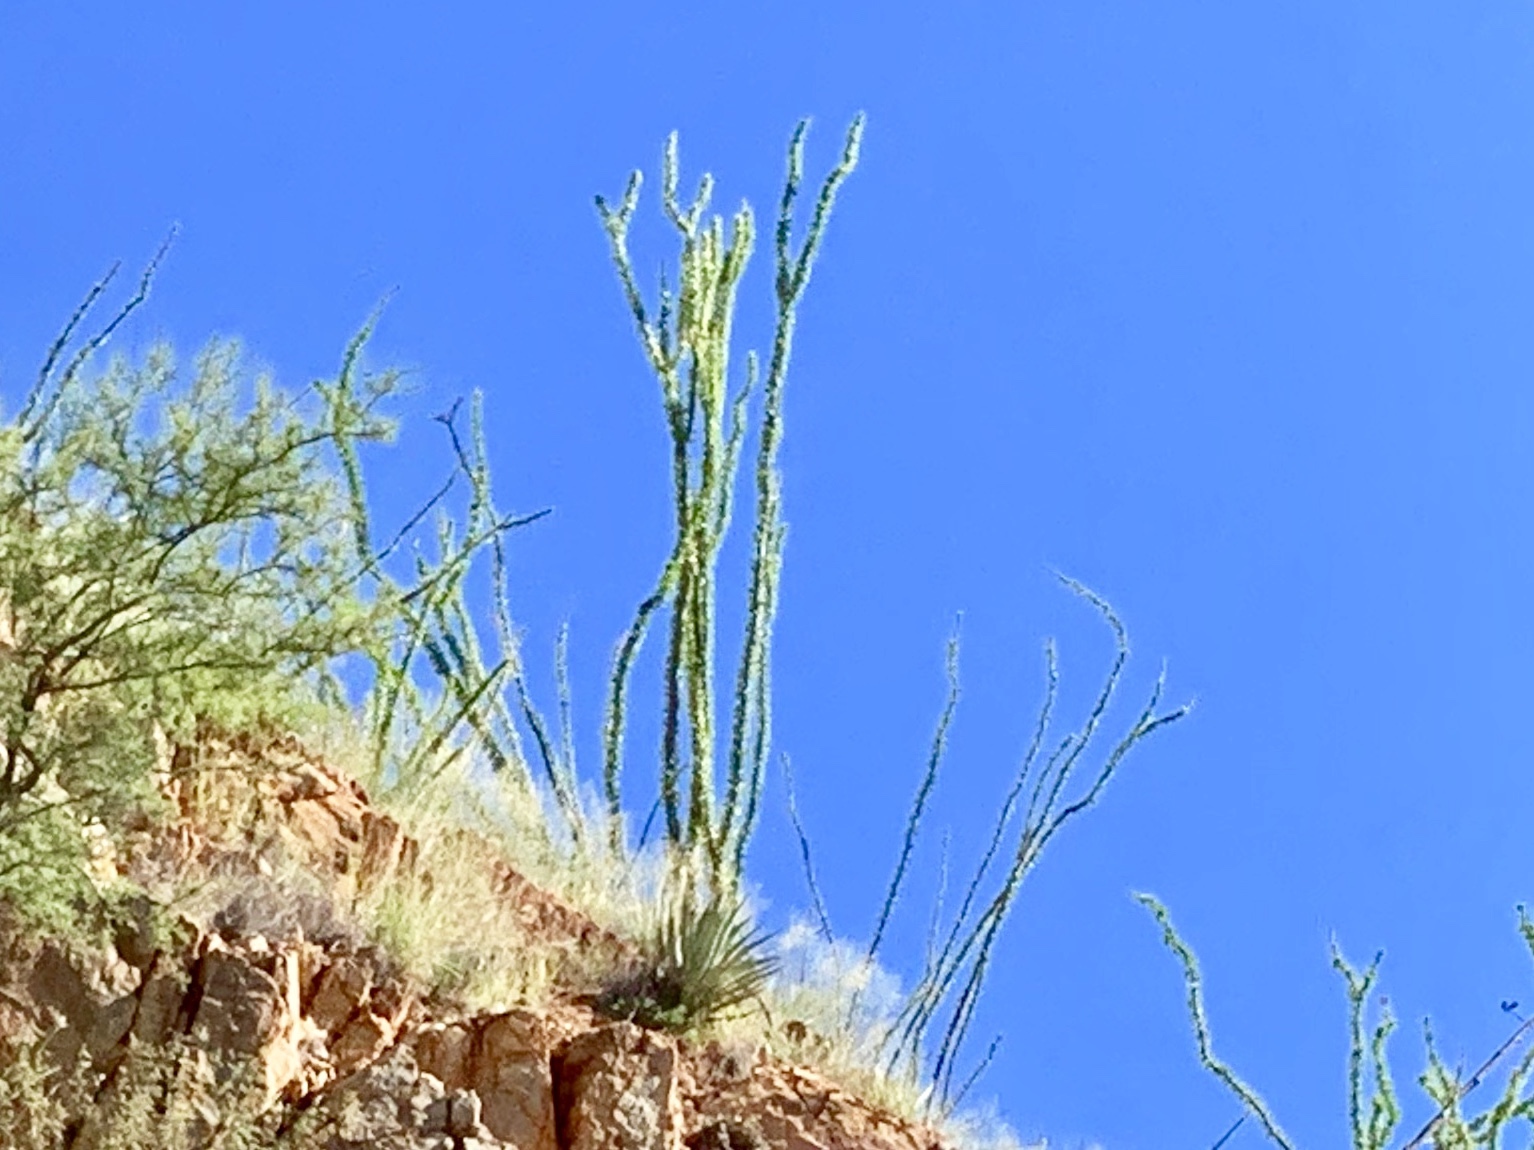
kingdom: Plantae
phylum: Tracheophyta
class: Magnoliopsida
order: Ericales
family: Fouquieriaceae
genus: Fouquieria
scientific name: Fouquieria splendens
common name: Vine-cactus
